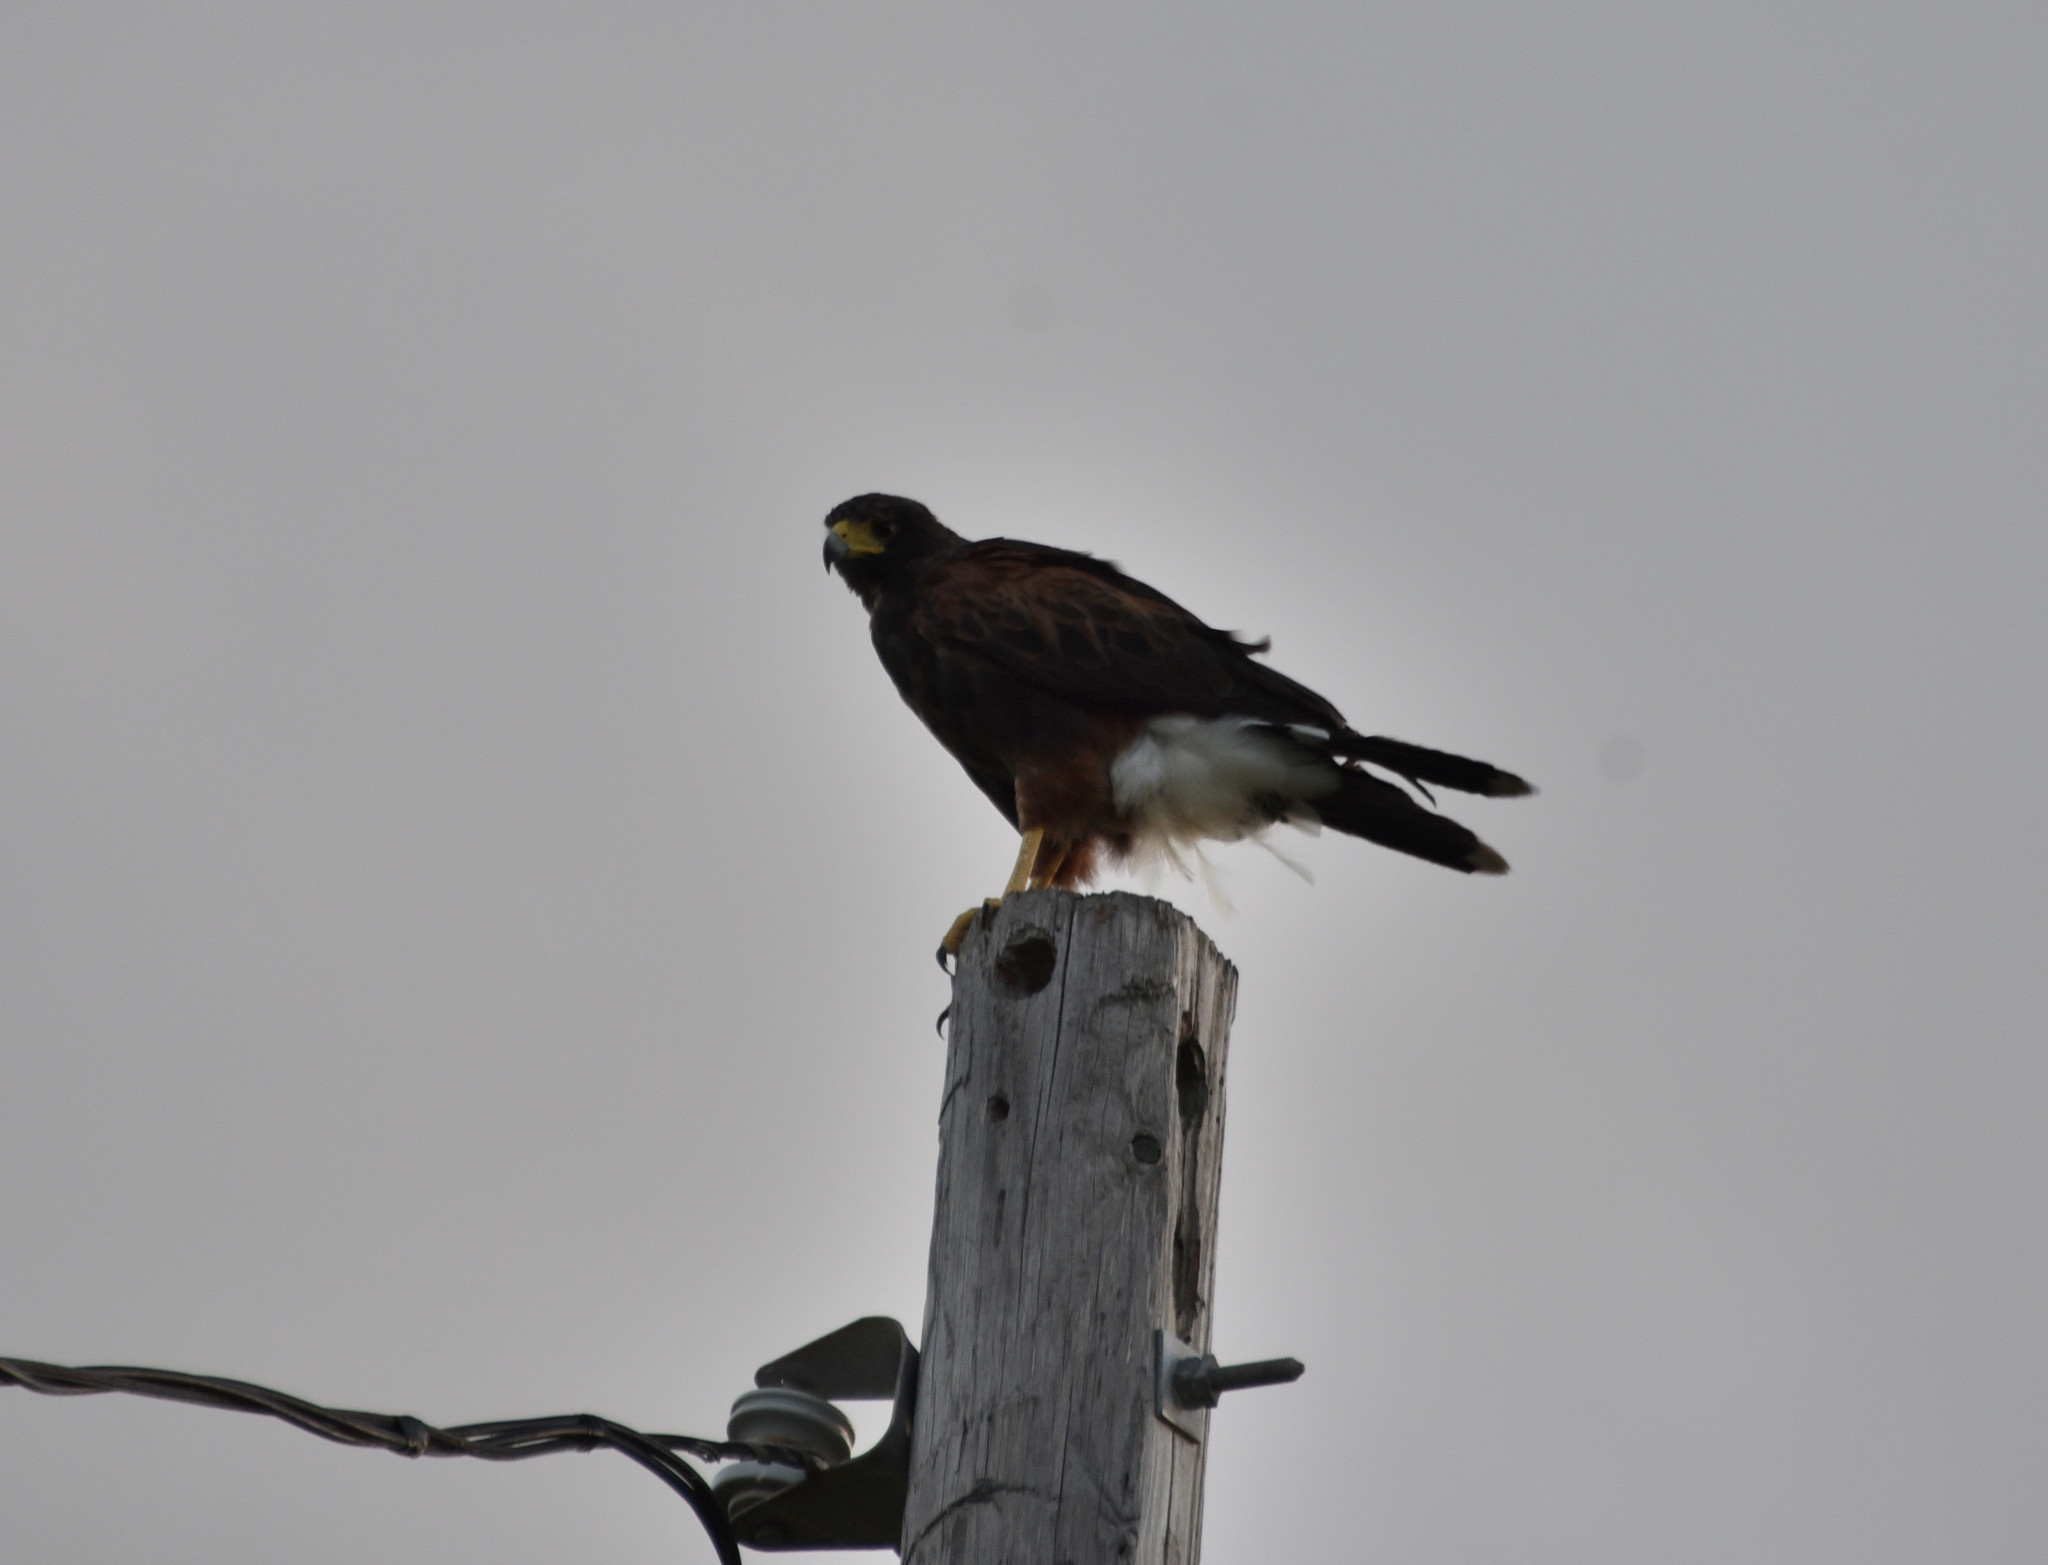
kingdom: Animalia
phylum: Chordata
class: Aves
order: Accipitriformes
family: Accipitridae
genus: Parabuteo
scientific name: Parabuteo unicinctus
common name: Harris's hawk
